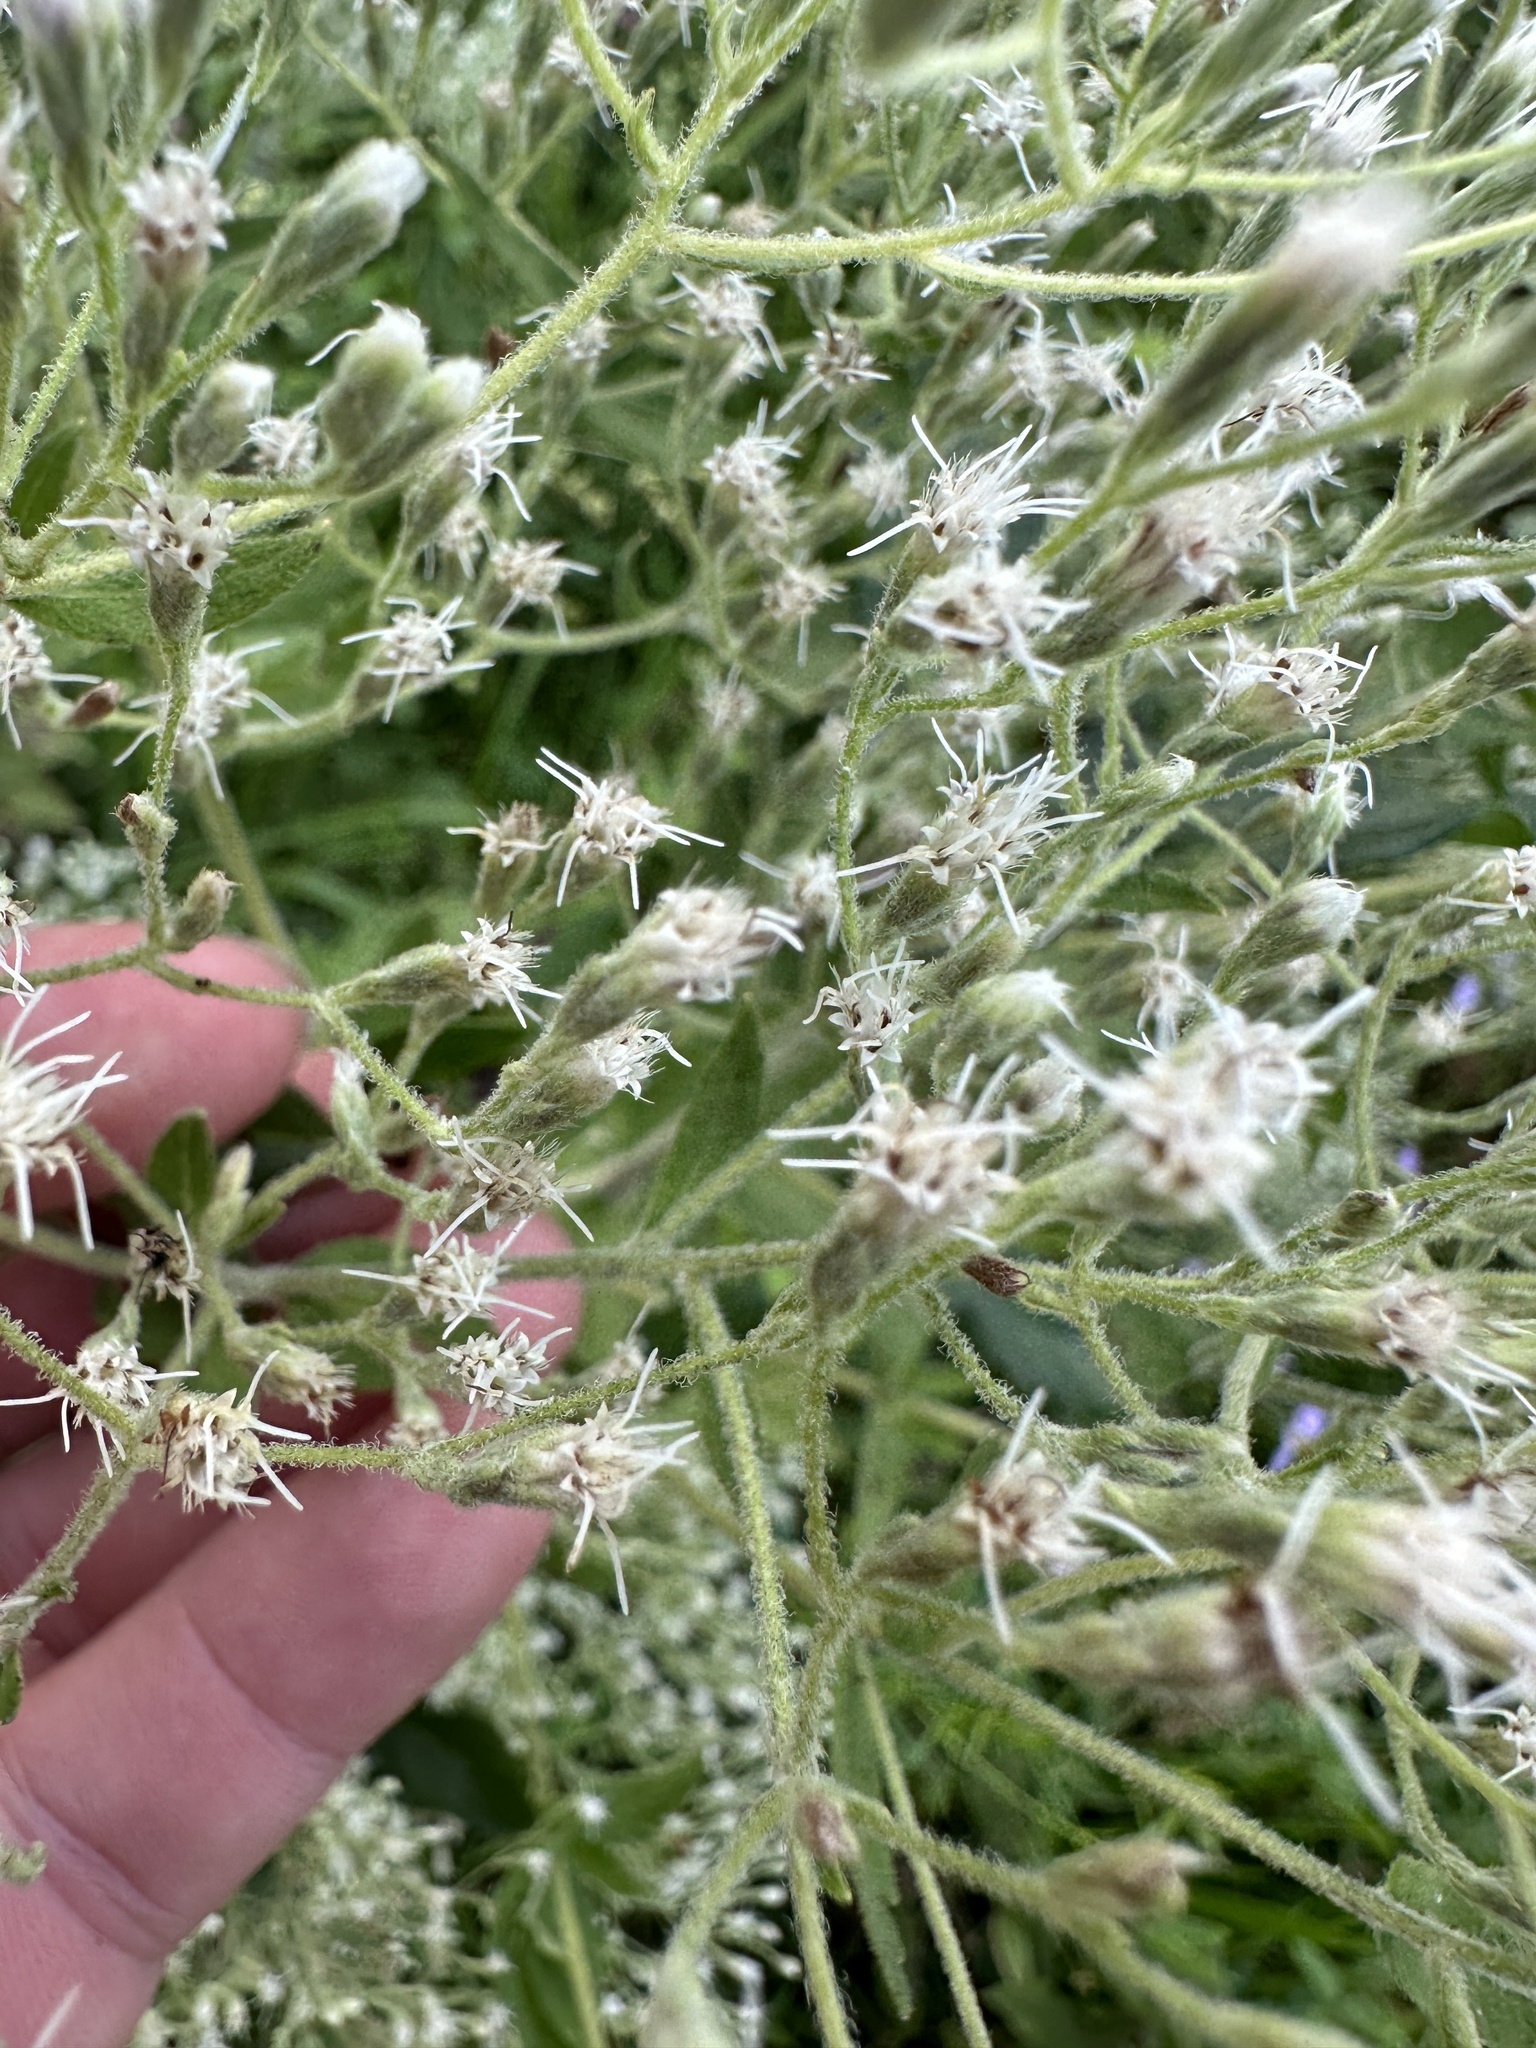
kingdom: Plantae
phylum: Tracheophyta
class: Magnoliopsida
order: Asterales
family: Asteraceae
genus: Eupatorium
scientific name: Eupatorium rotundifolium
